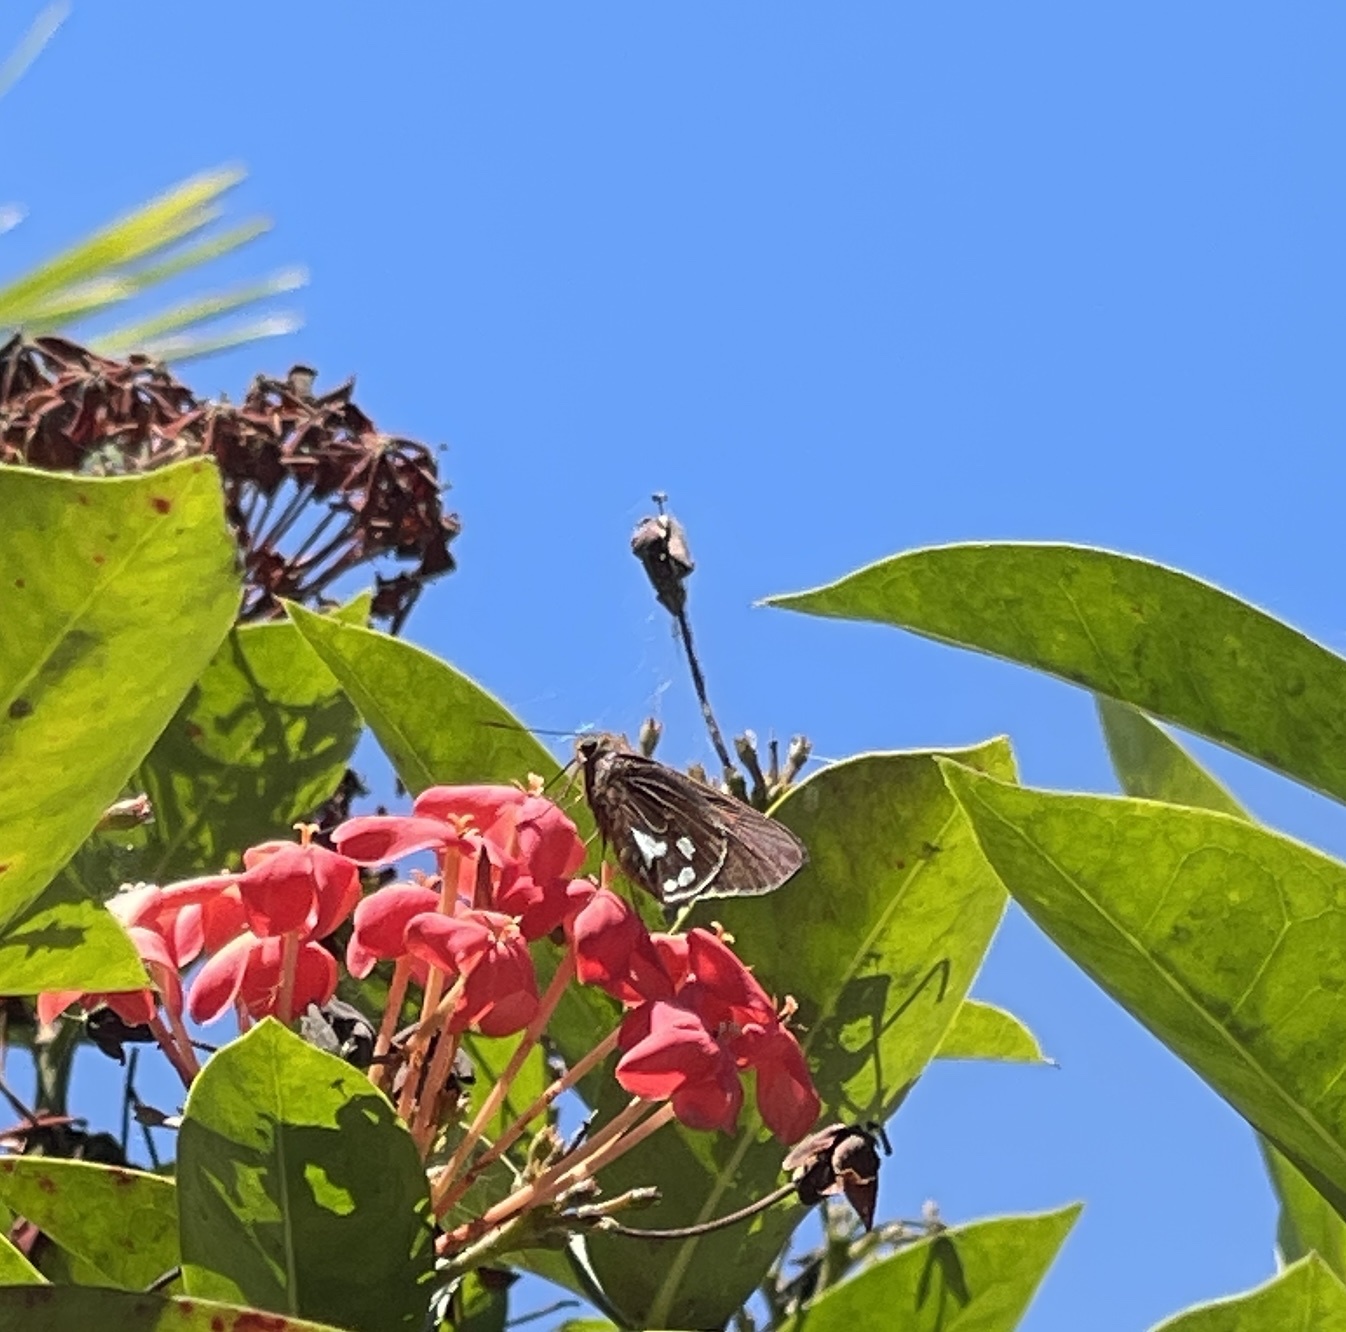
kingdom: Animalia
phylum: Arthropoda
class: Insecta
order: Lepidoptera
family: Hesperiidae
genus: Aides
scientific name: Aides dysoni
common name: Dyson's silverpatch
